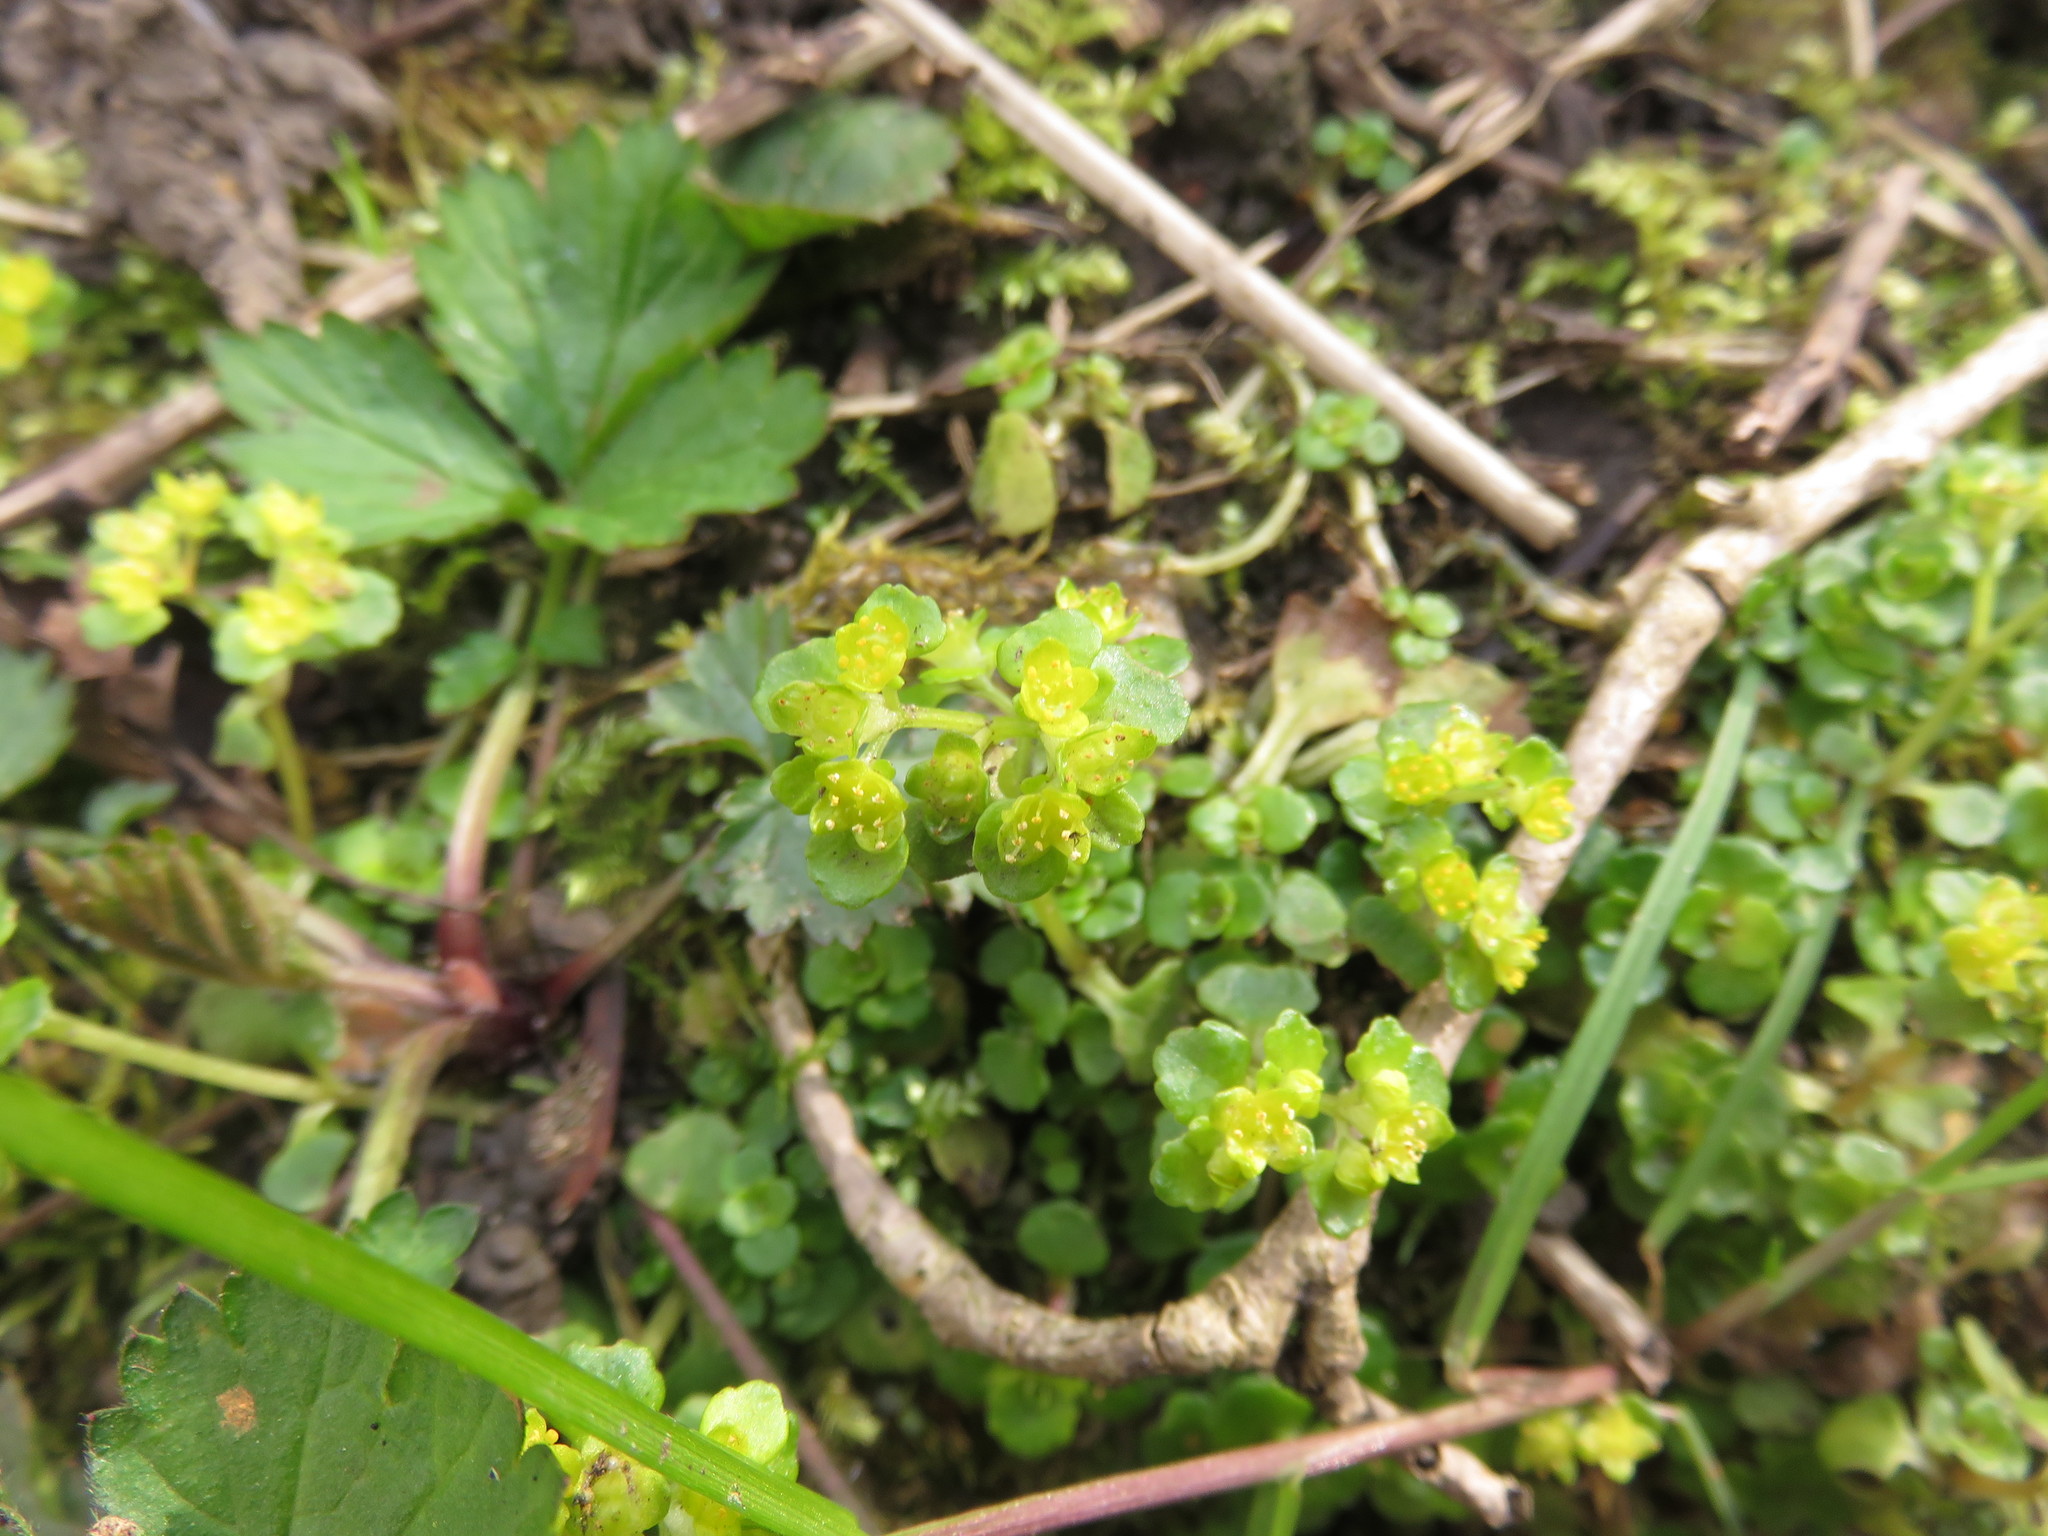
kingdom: Plantae
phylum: Tracheophyta
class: Magnoliopsida
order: Saxifragales
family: Saxifragaceae
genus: Chrysosplenium
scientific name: Chrysosplenium oppositifolium
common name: Opposite-leaved golden-saxifrage
